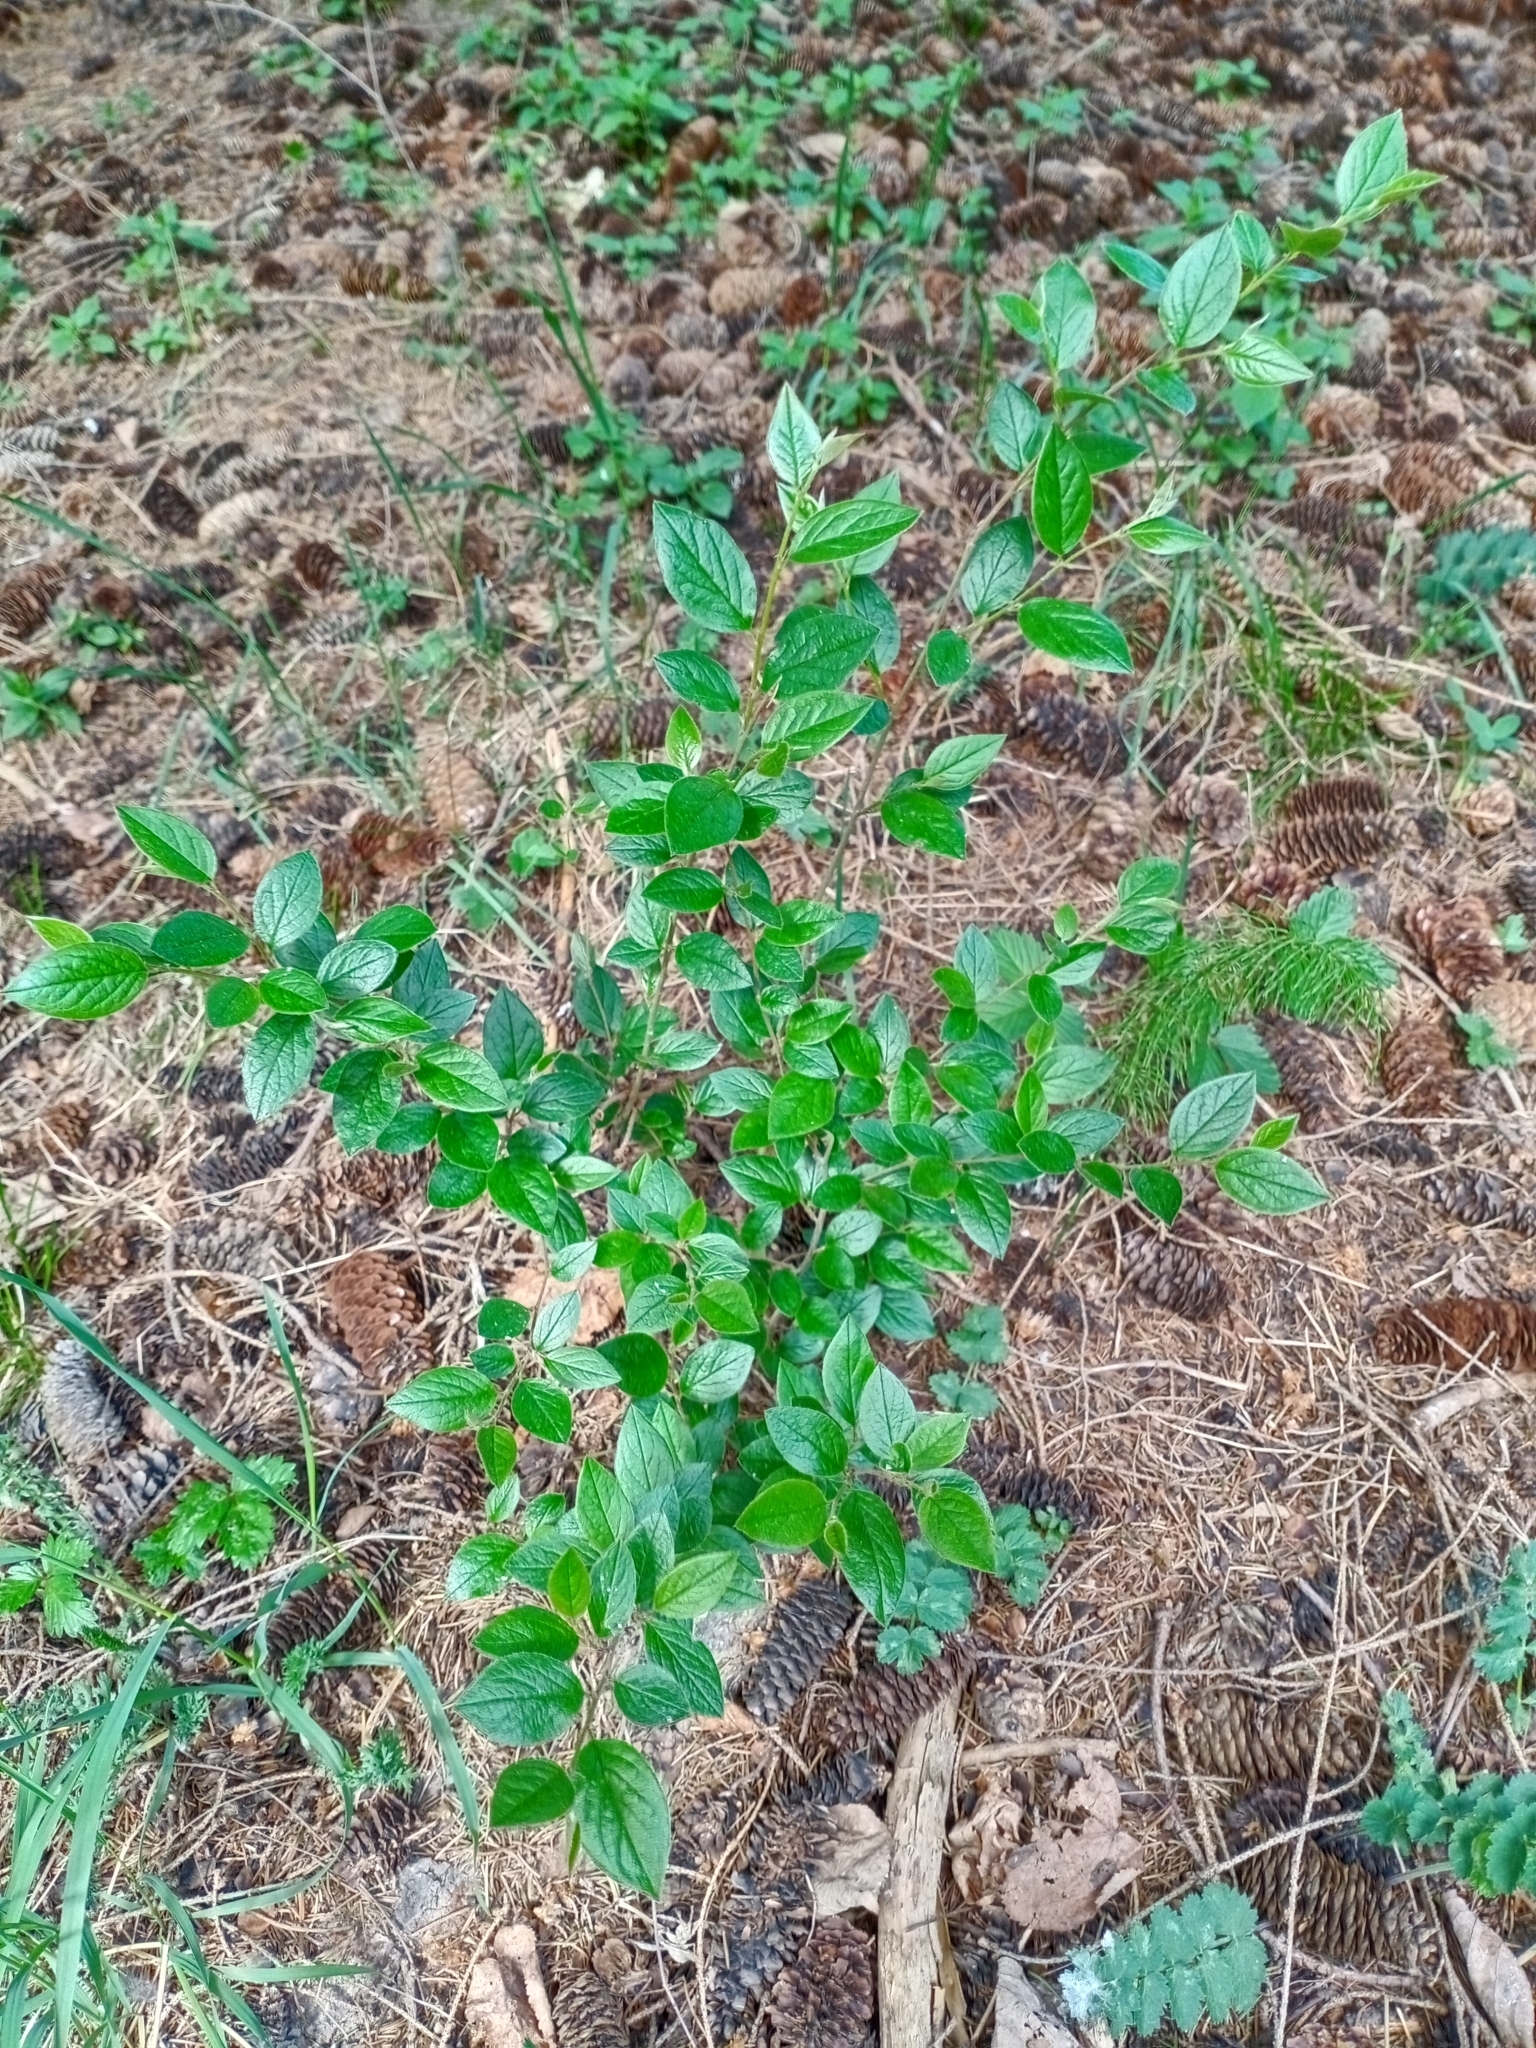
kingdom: Plantae
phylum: Tracheophyta
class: Magnoliopsida
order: Rosales
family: Rosaceae
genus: Cotoneaster
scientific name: Cotoneaster acutifolius
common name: Peking cotoneaster
